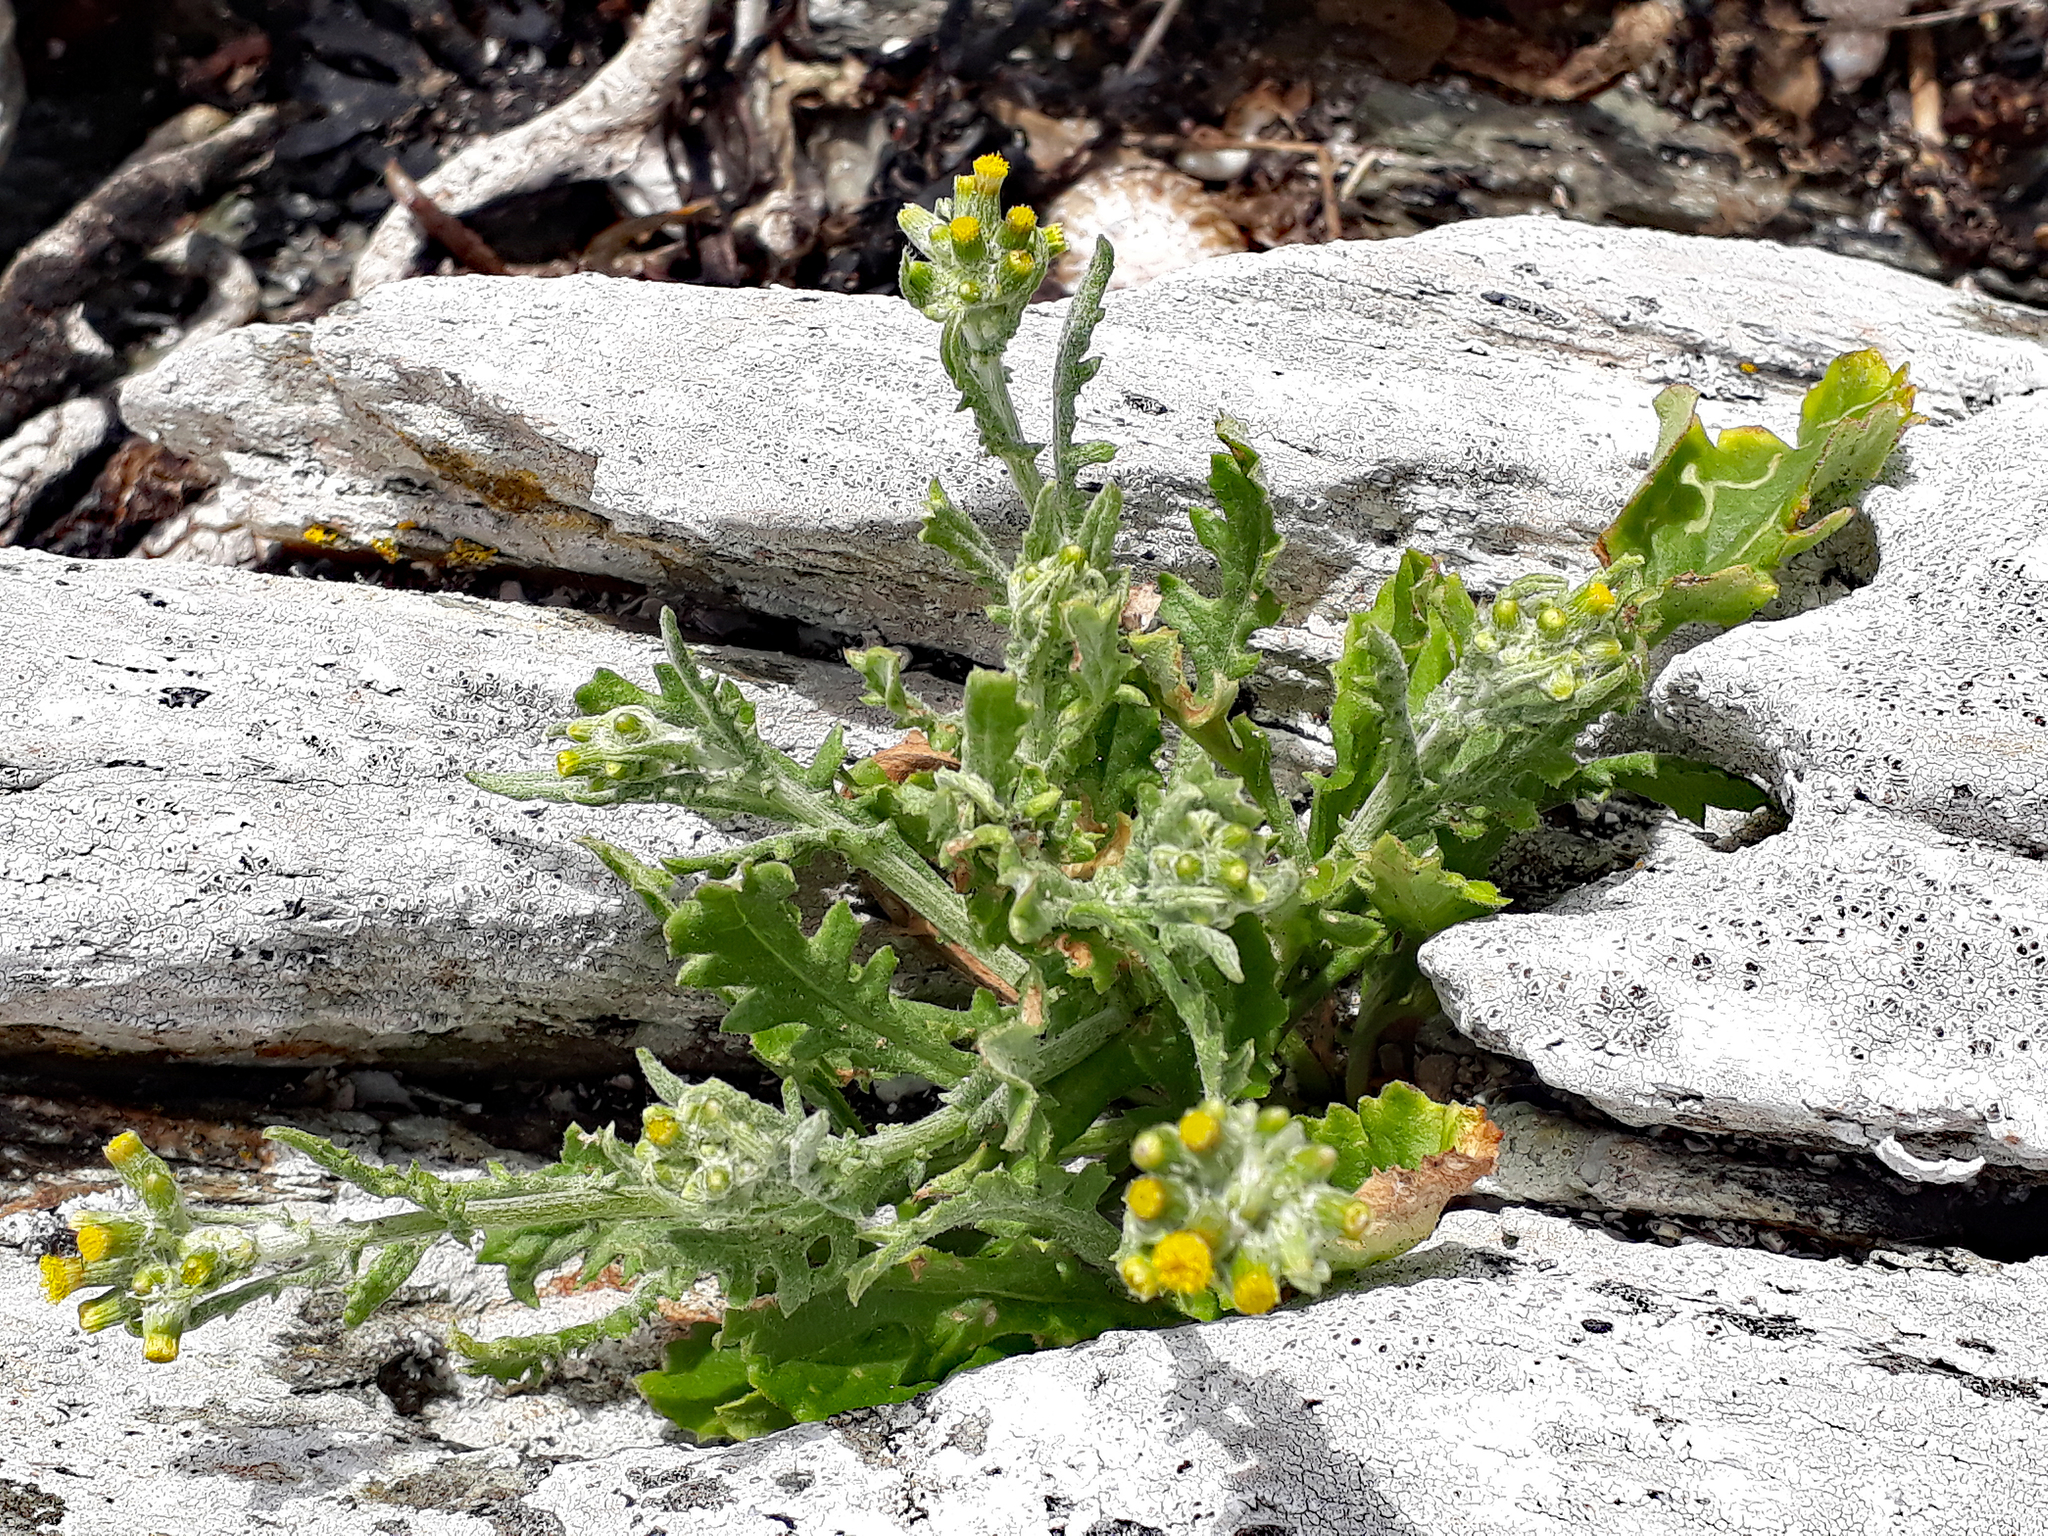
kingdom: Plantae
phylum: Tracheophyta
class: Magnoliopsida
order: Asterales
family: Asteraceae
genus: Senecio
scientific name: Senecio glomeratus
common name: Cutleaf burnweed
